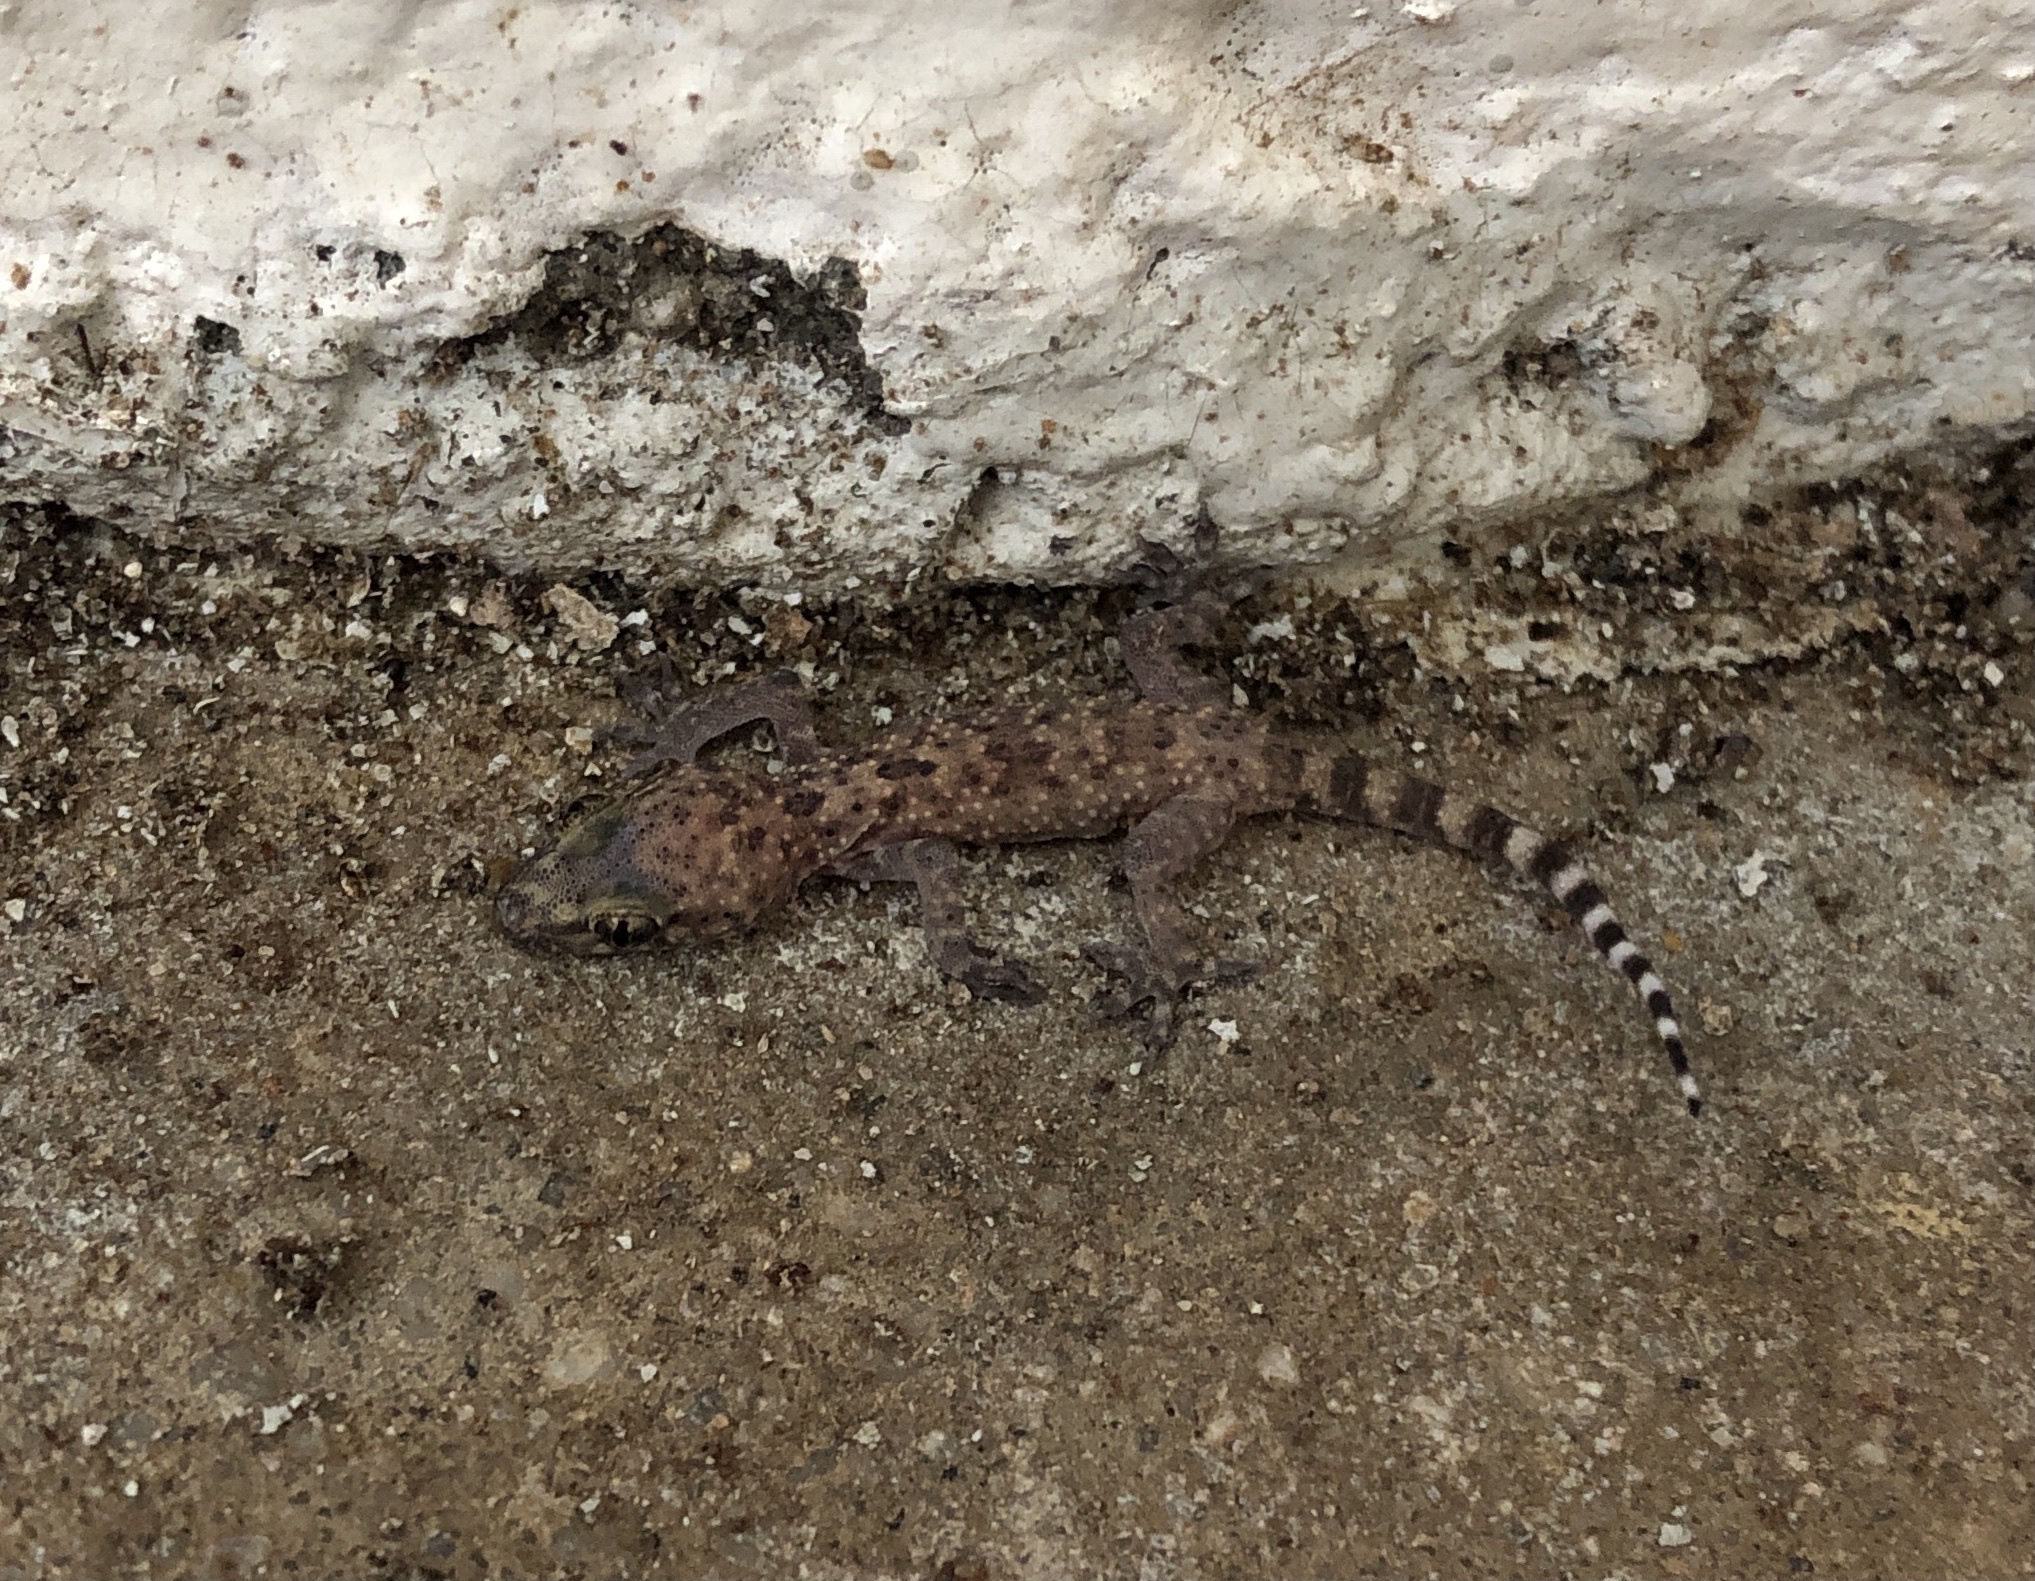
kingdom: Animalia
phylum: Chordata
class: Squamata
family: Gekkonidae
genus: Hemidactylus
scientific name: Hemidactylus turcicus
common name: Turkish gecko
